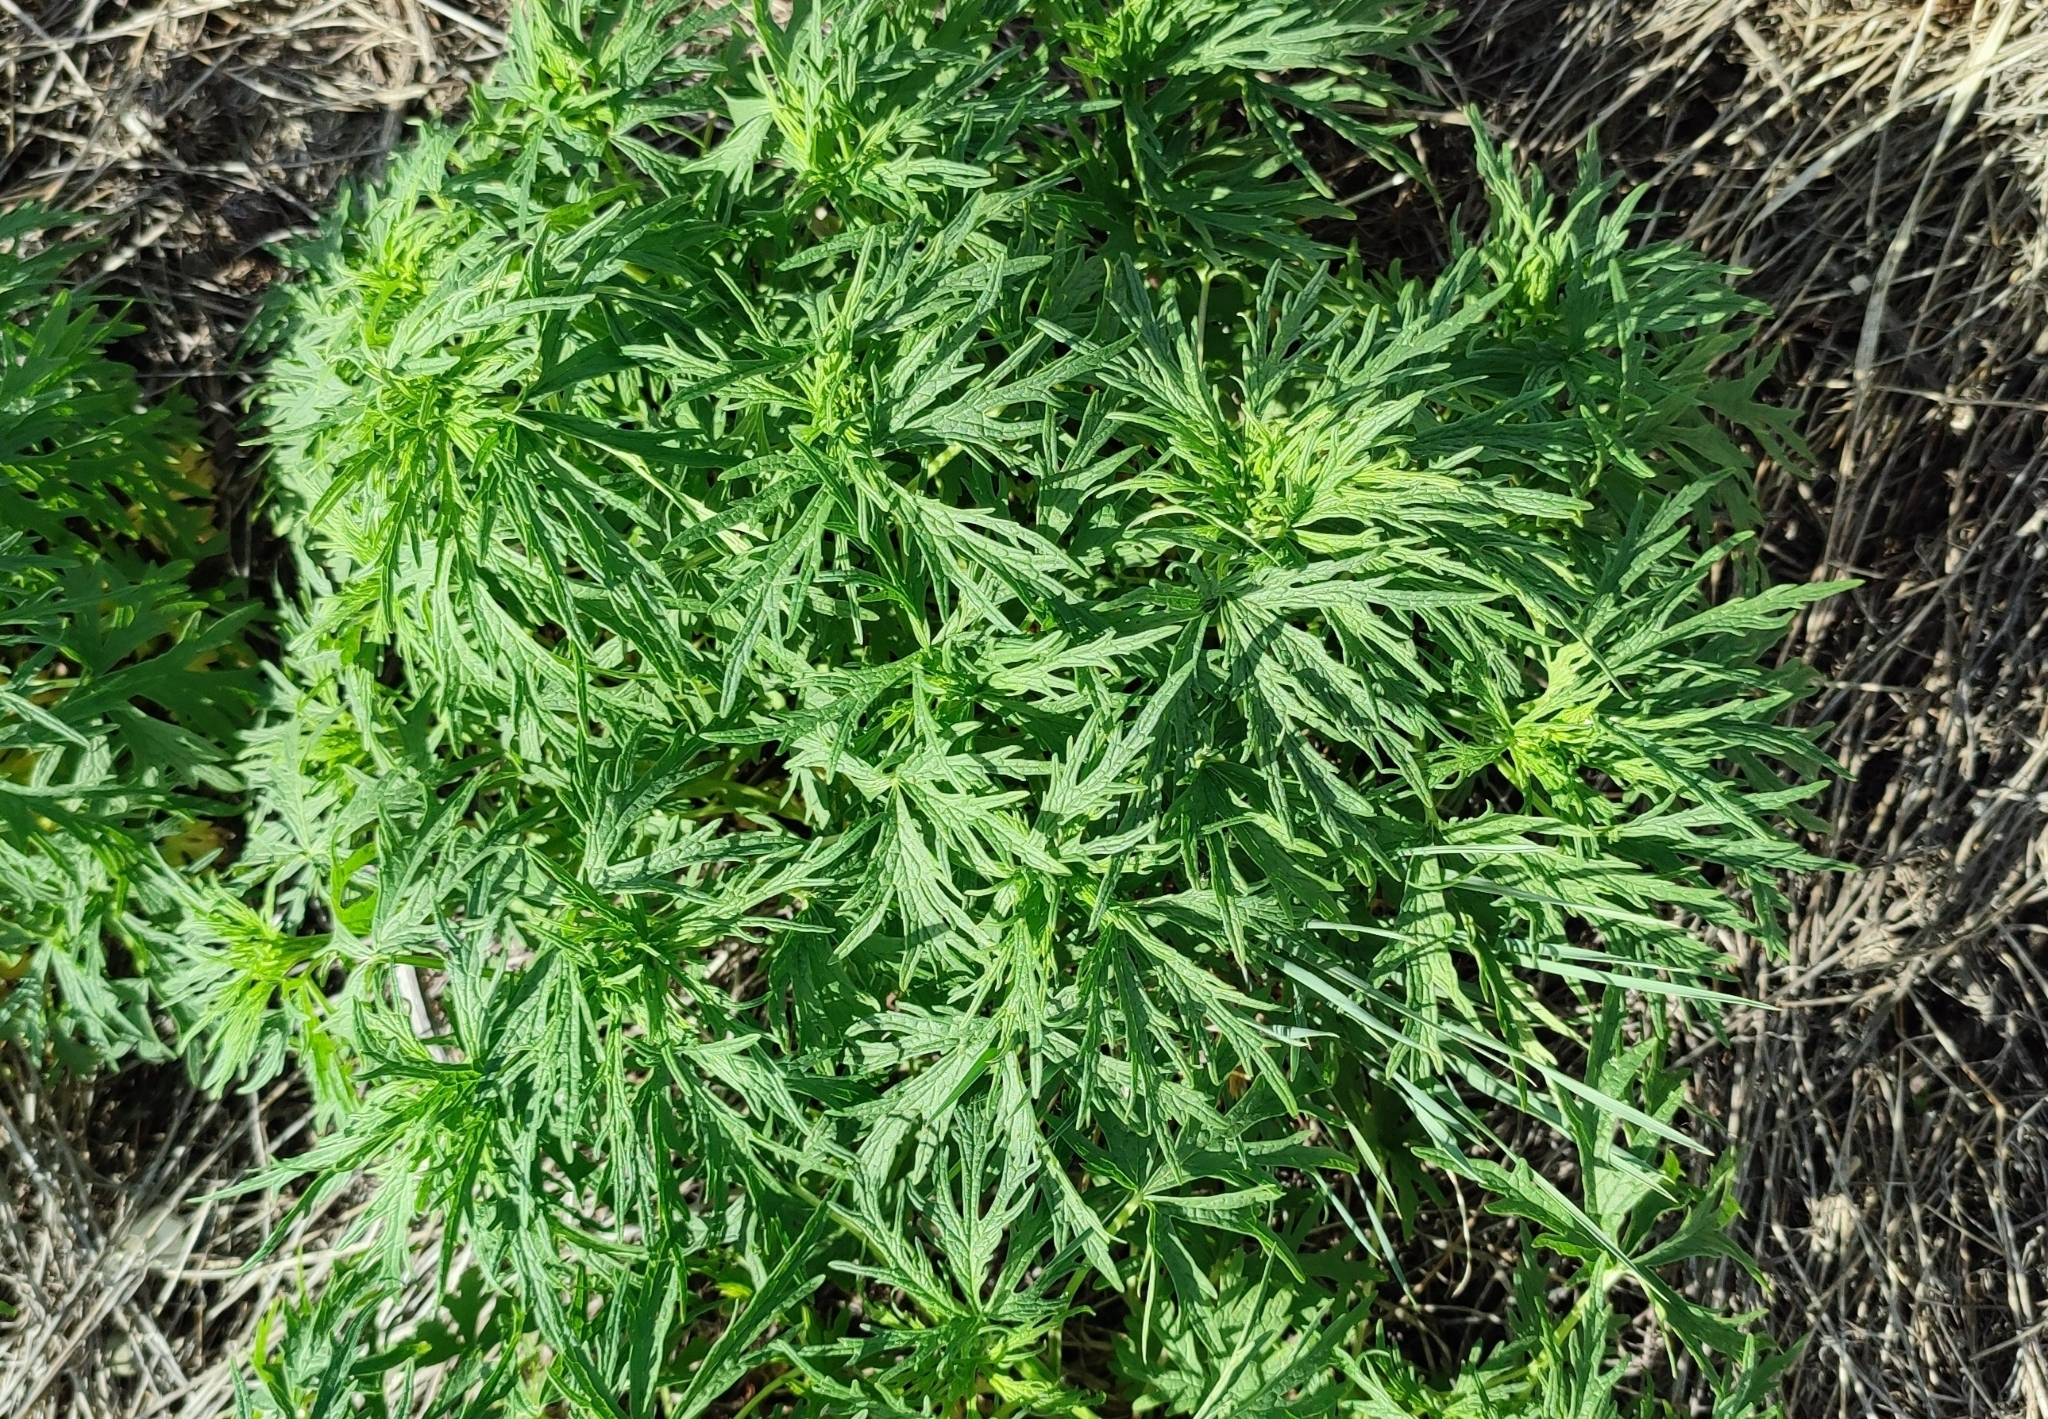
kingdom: Plantae
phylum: Tracheophyta
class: Magnoliopsida
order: Lamiales
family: Lamiaceae
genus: Leonurus
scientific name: Leonurus glaucescens
